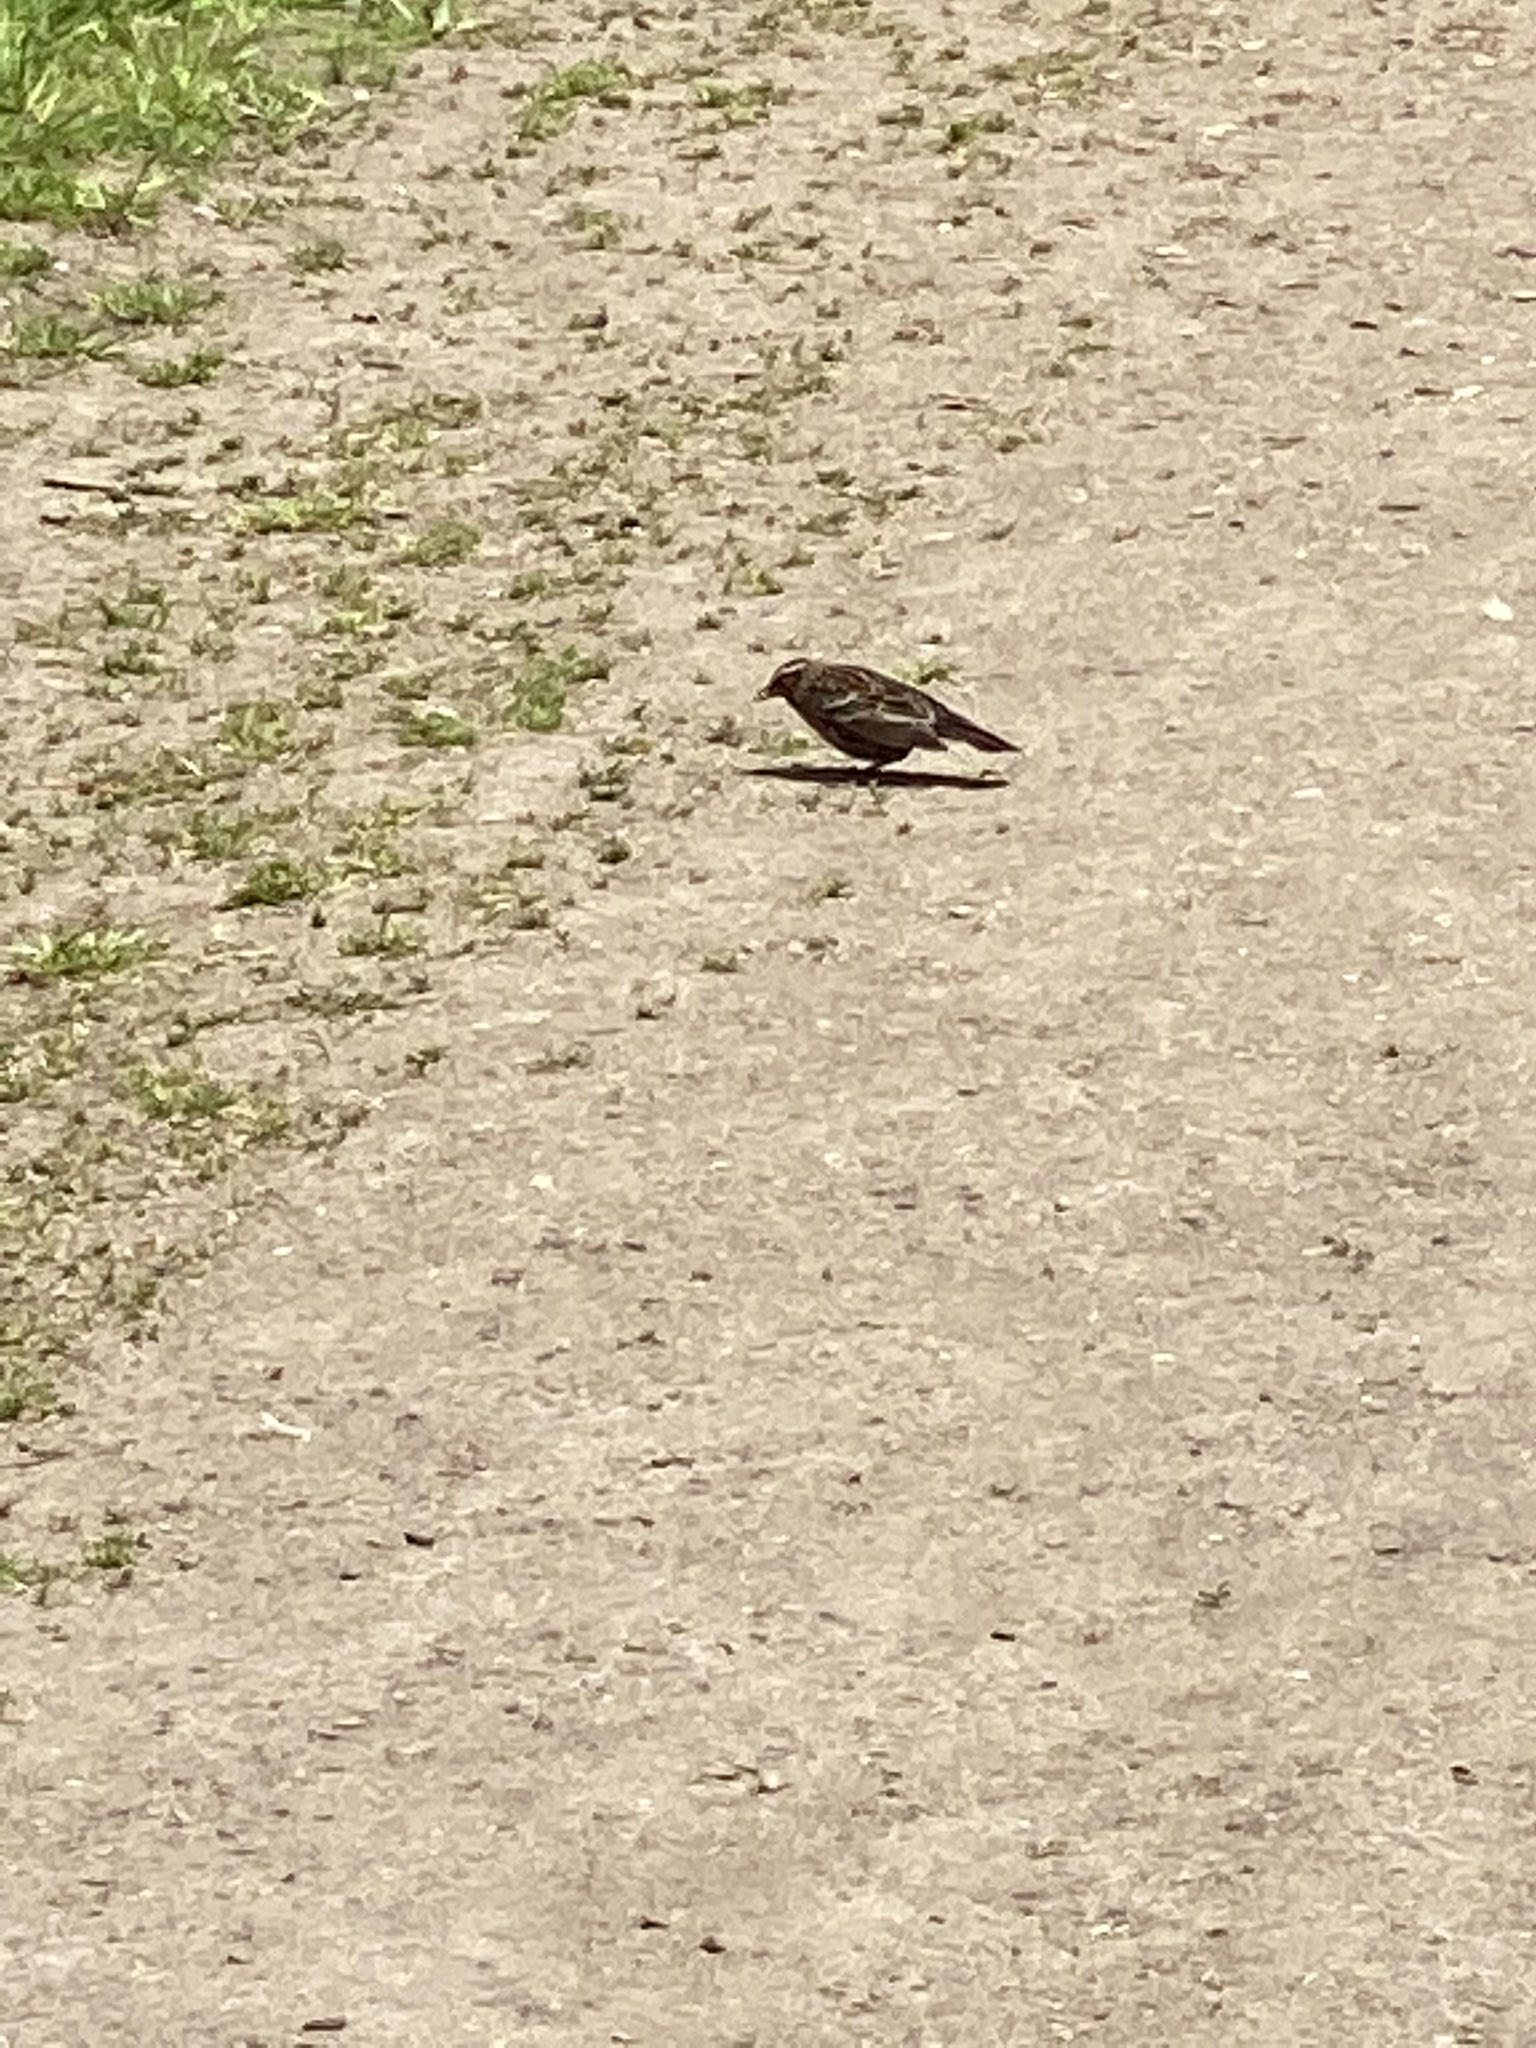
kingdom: Animalia
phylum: Chordata
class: Aves
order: Passeriformes
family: Icteridae
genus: Agelaius
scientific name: Agelaius phoeniceus
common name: Red-winged blackbird
